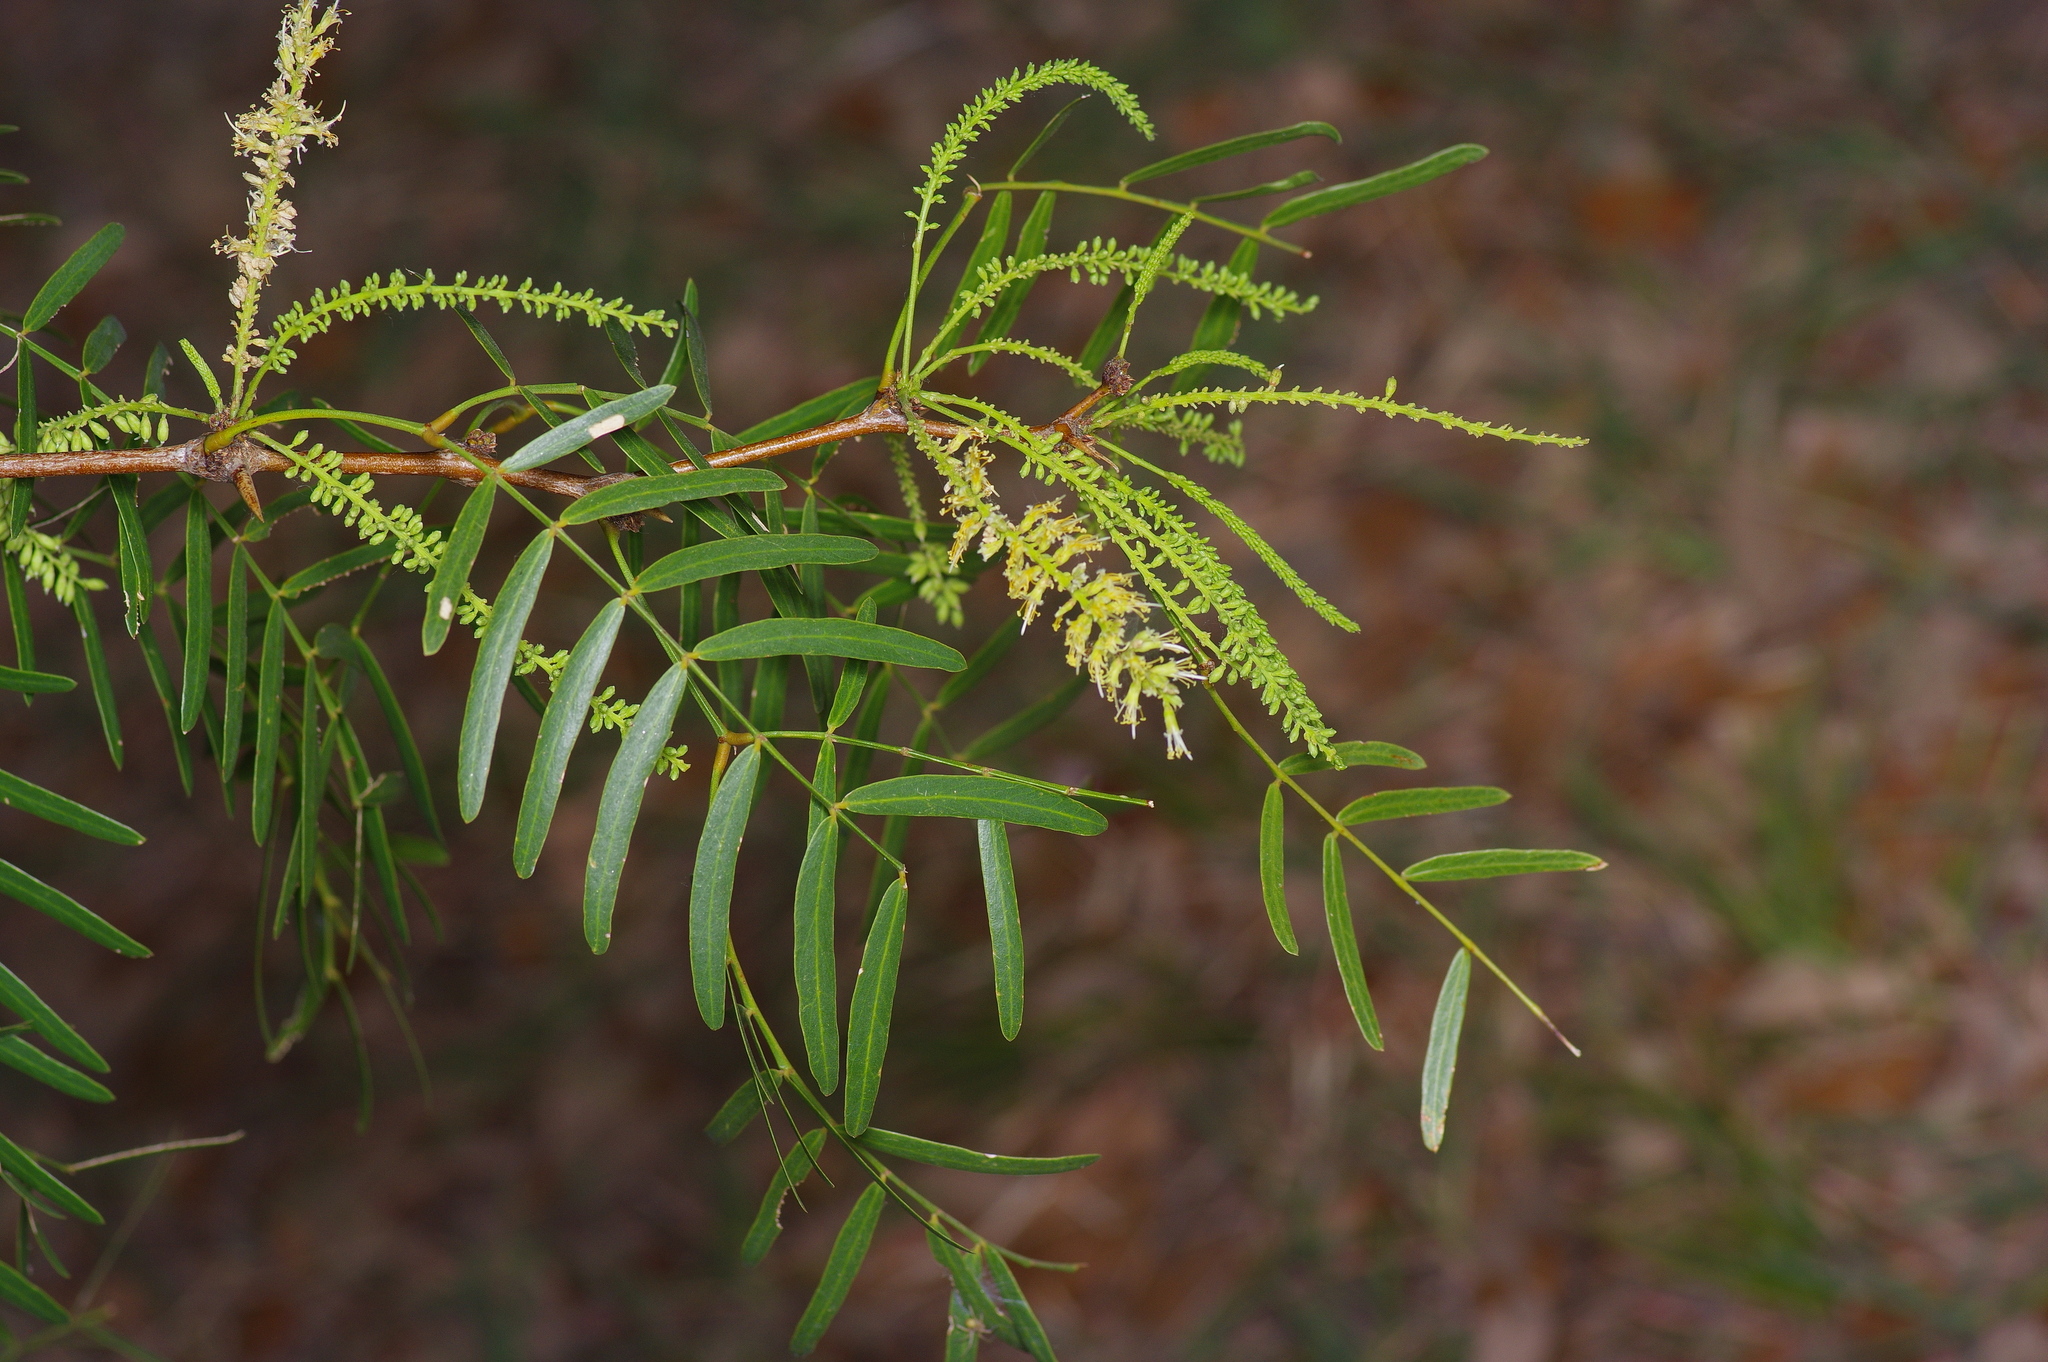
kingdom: Plantae
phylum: Tracheophyta
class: Magnoliopsida
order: Fabales
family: Fabaceae
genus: Prosopis
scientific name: Prosopis glandulosa
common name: Honey mesquite
